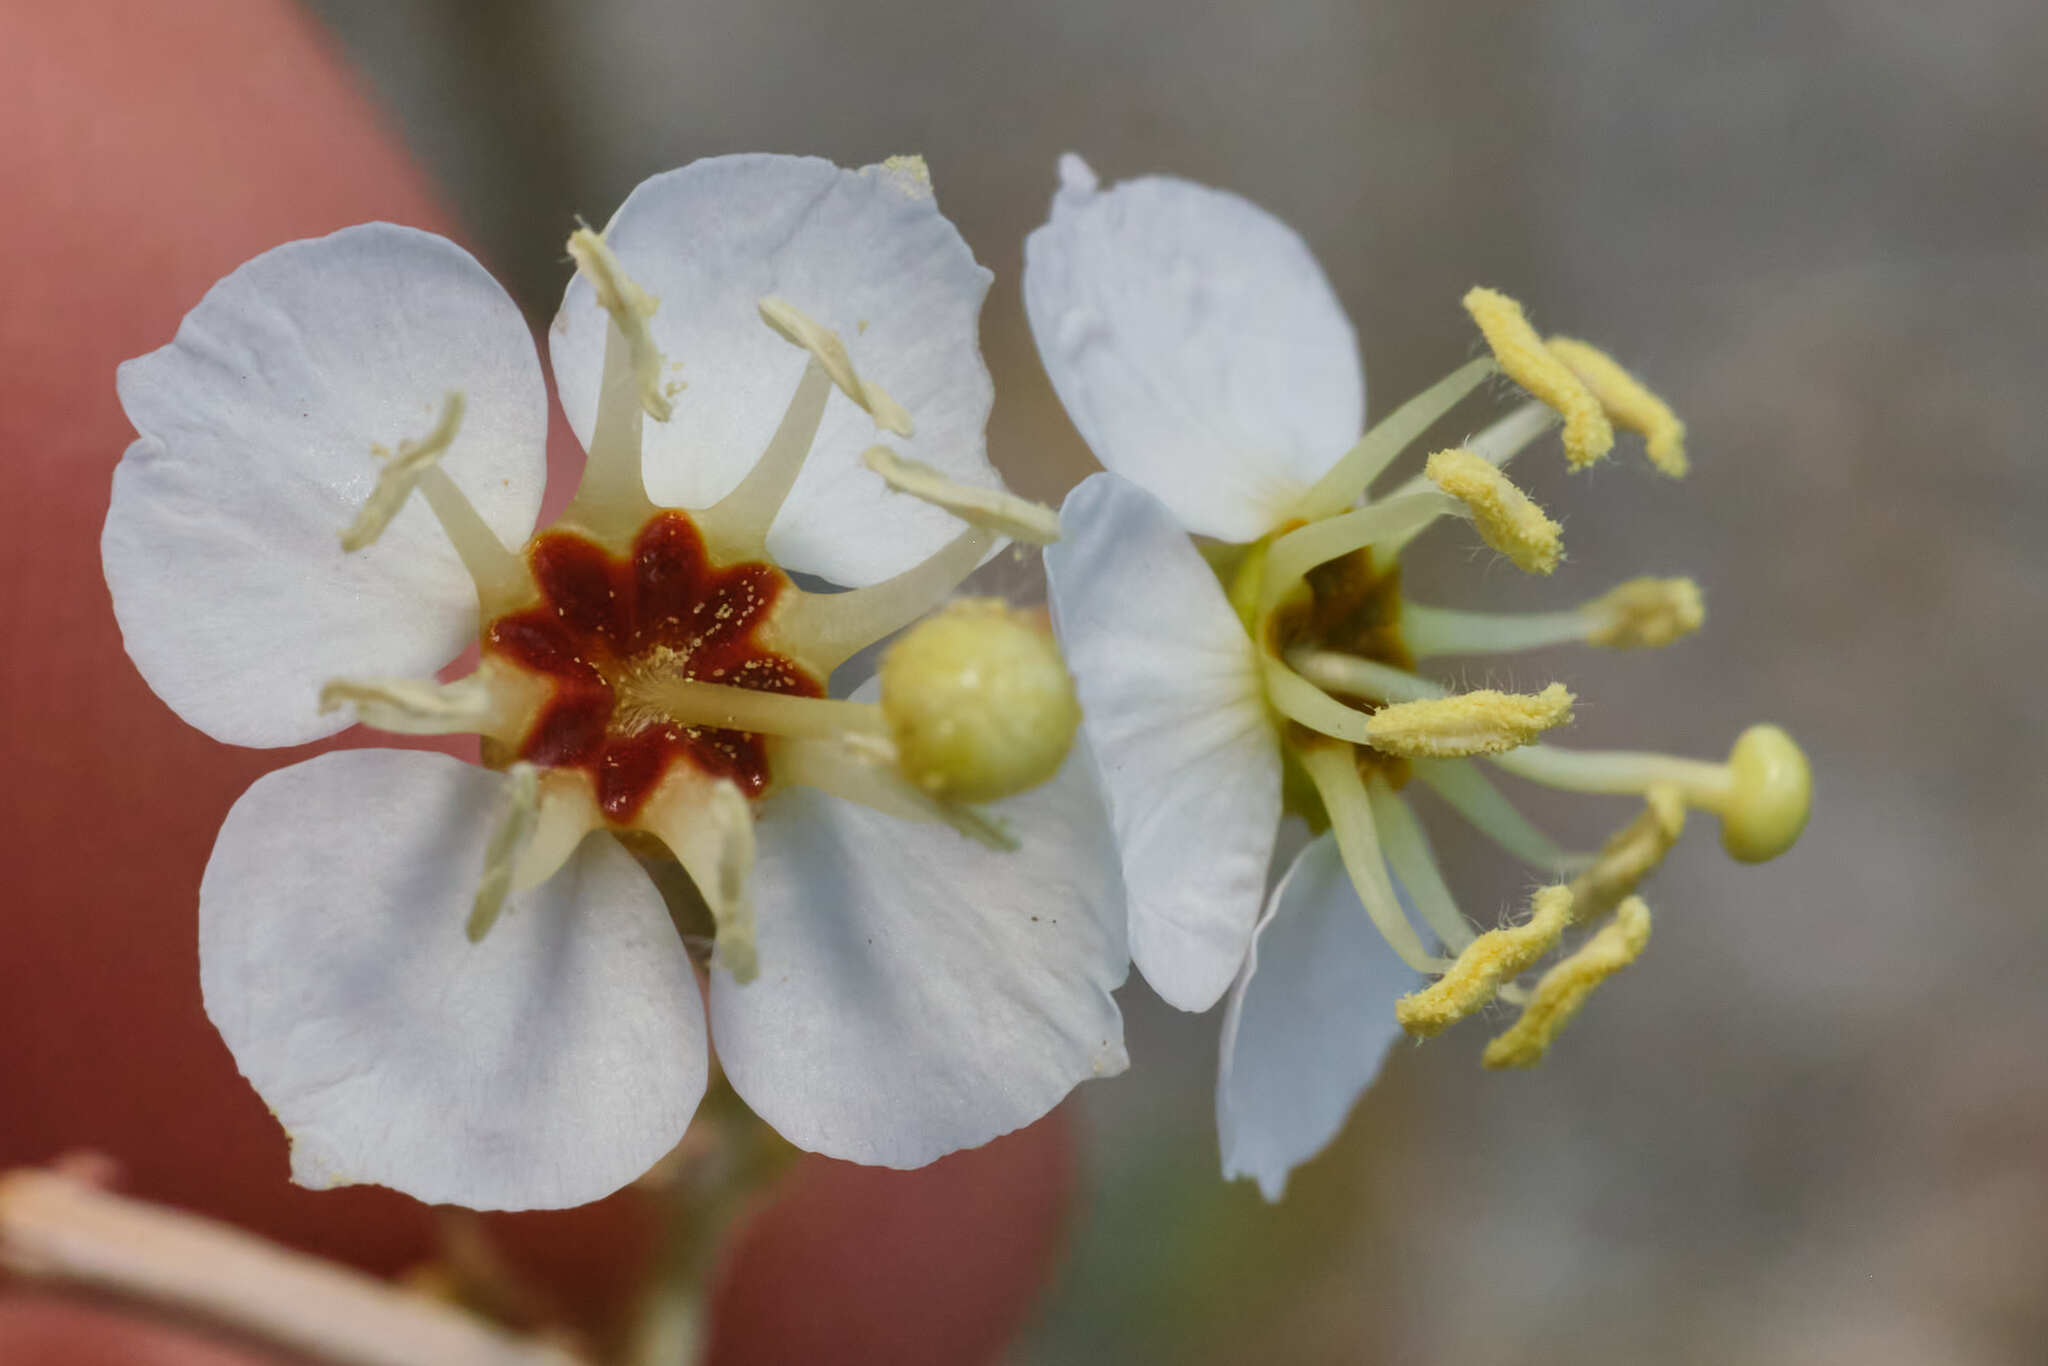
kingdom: Plantae
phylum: Tracheophyta
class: Magnoliopsida
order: Myrtales
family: Onagraceae
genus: Chylismia
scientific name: Chylismia claviformis
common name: Browneyes
